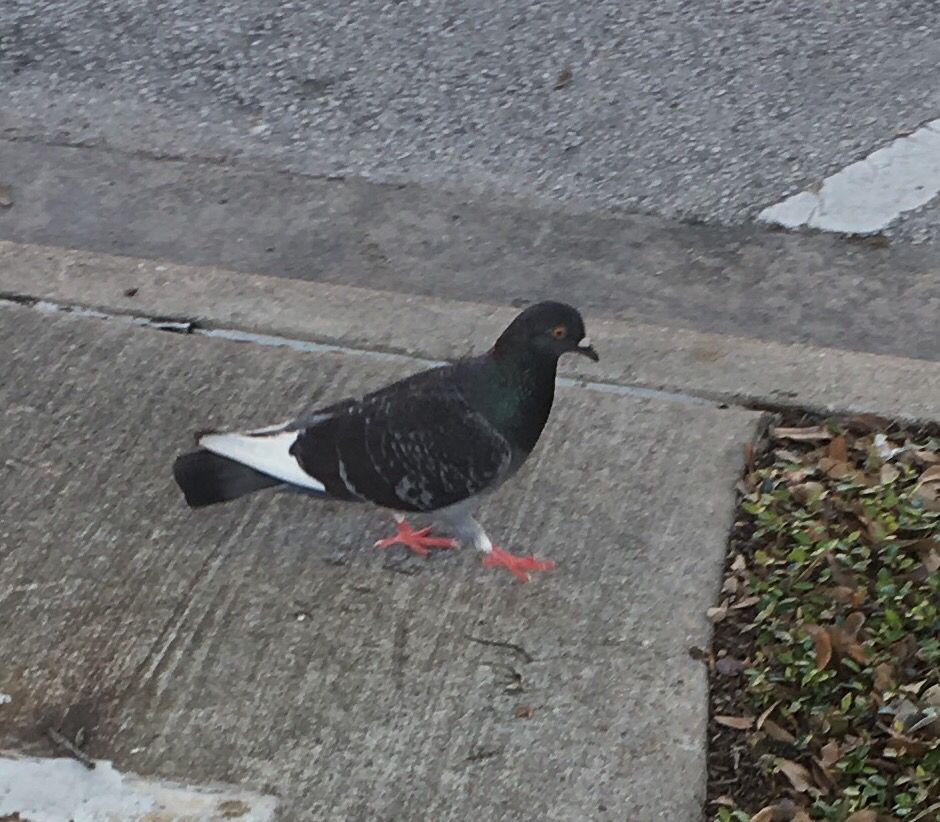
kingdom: Animalia
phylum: Chordata
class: Aves
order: Columbiformes
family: Columbidae
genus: Columba
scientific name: Columba livia
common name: Rock pigeon
